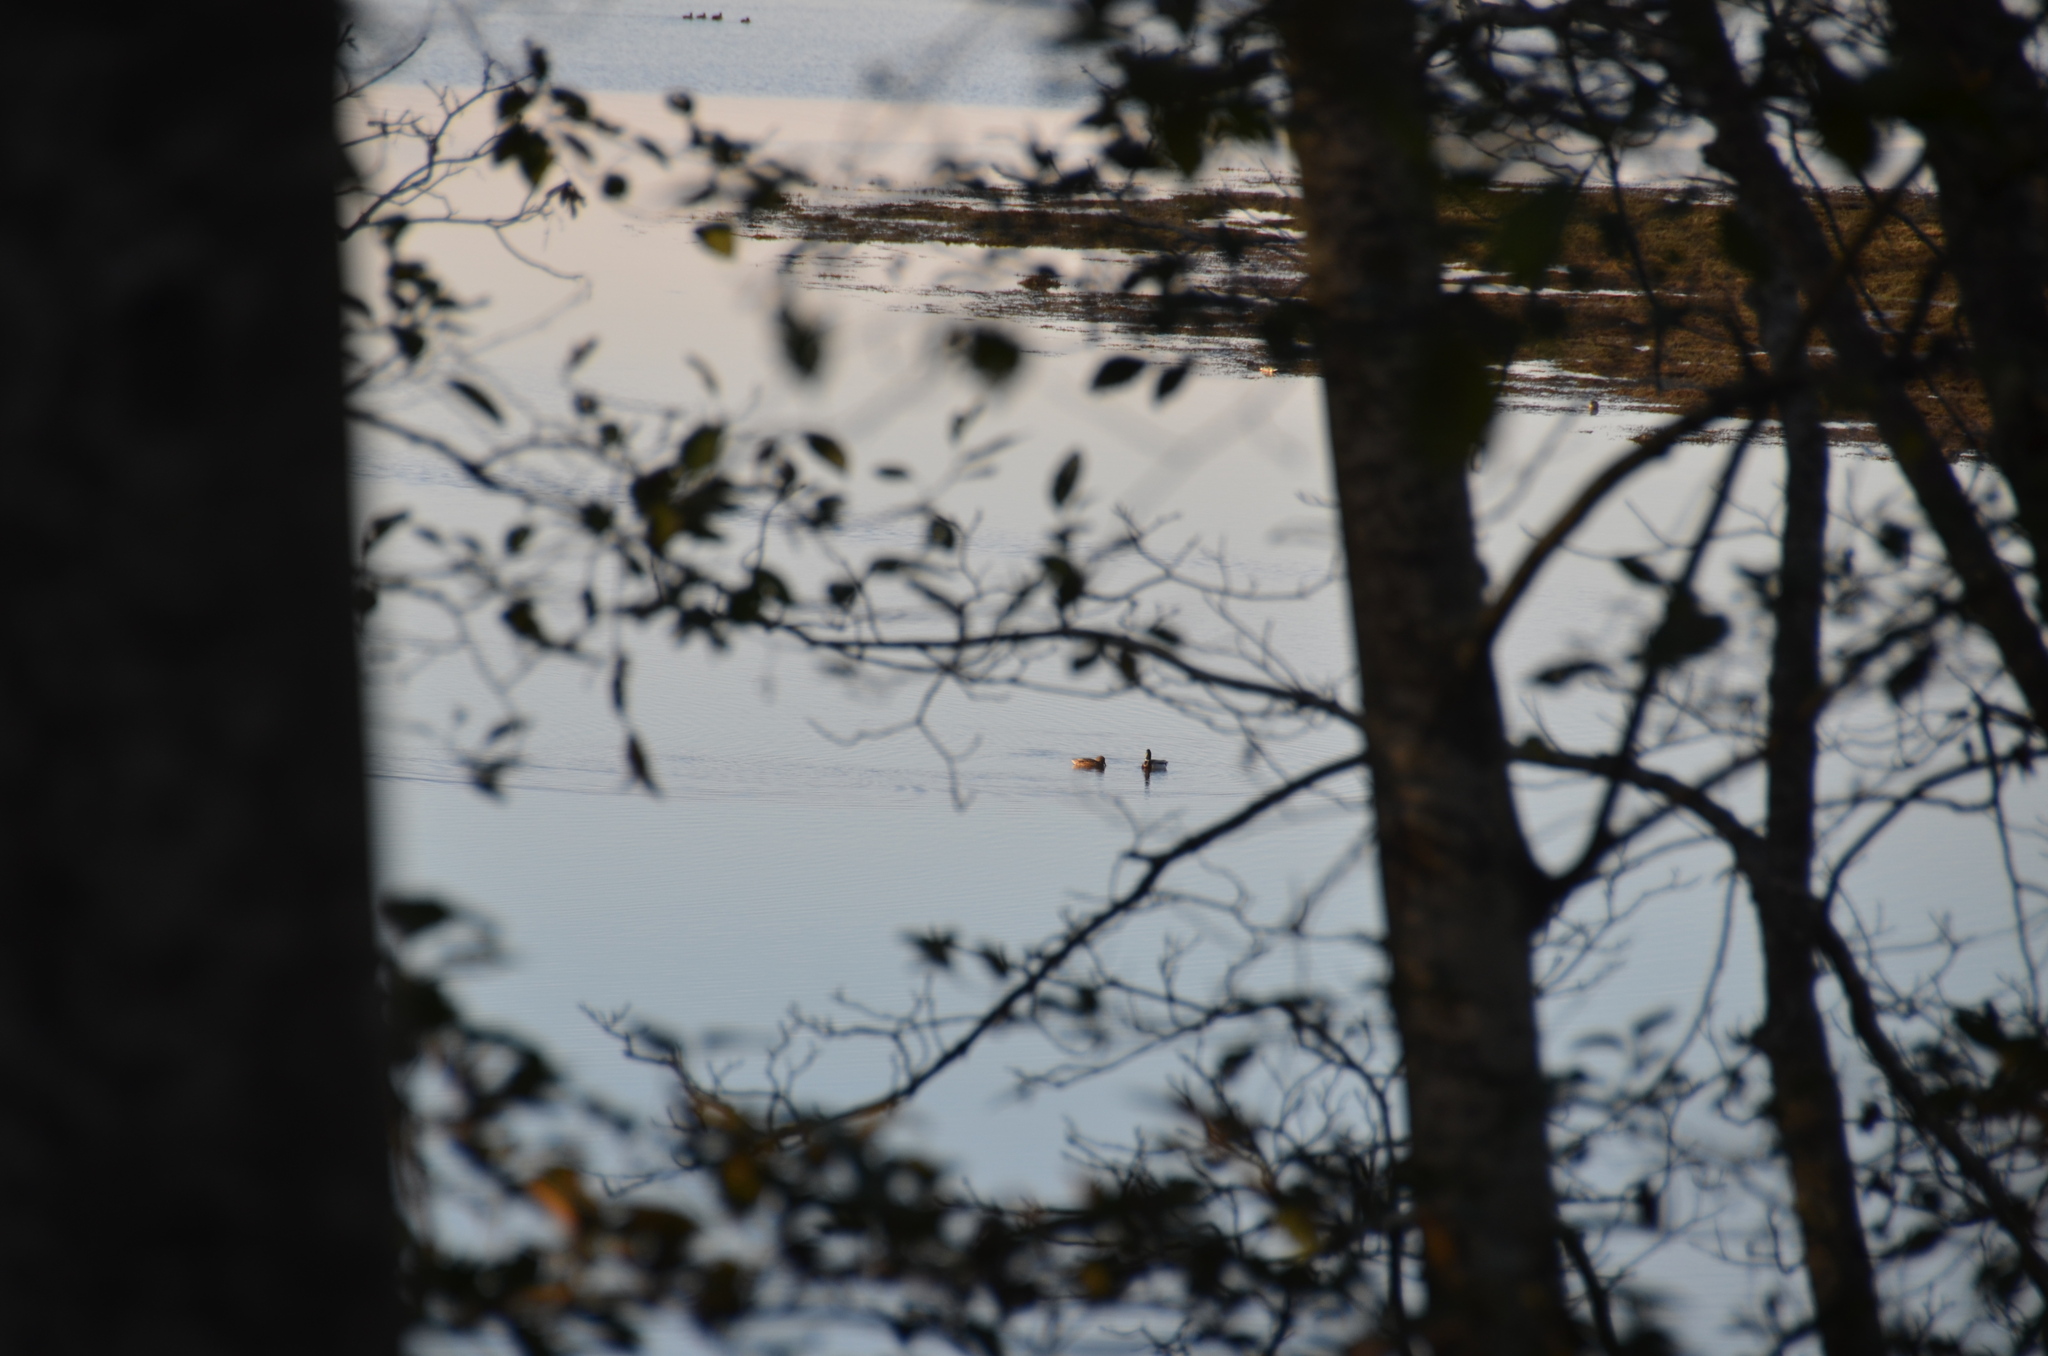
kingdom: Animalia
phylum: Chordata
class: Aves
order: Anseriformes
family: Anatidae
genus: Anas
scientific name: Anas platyrhynchos
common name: Mallard
